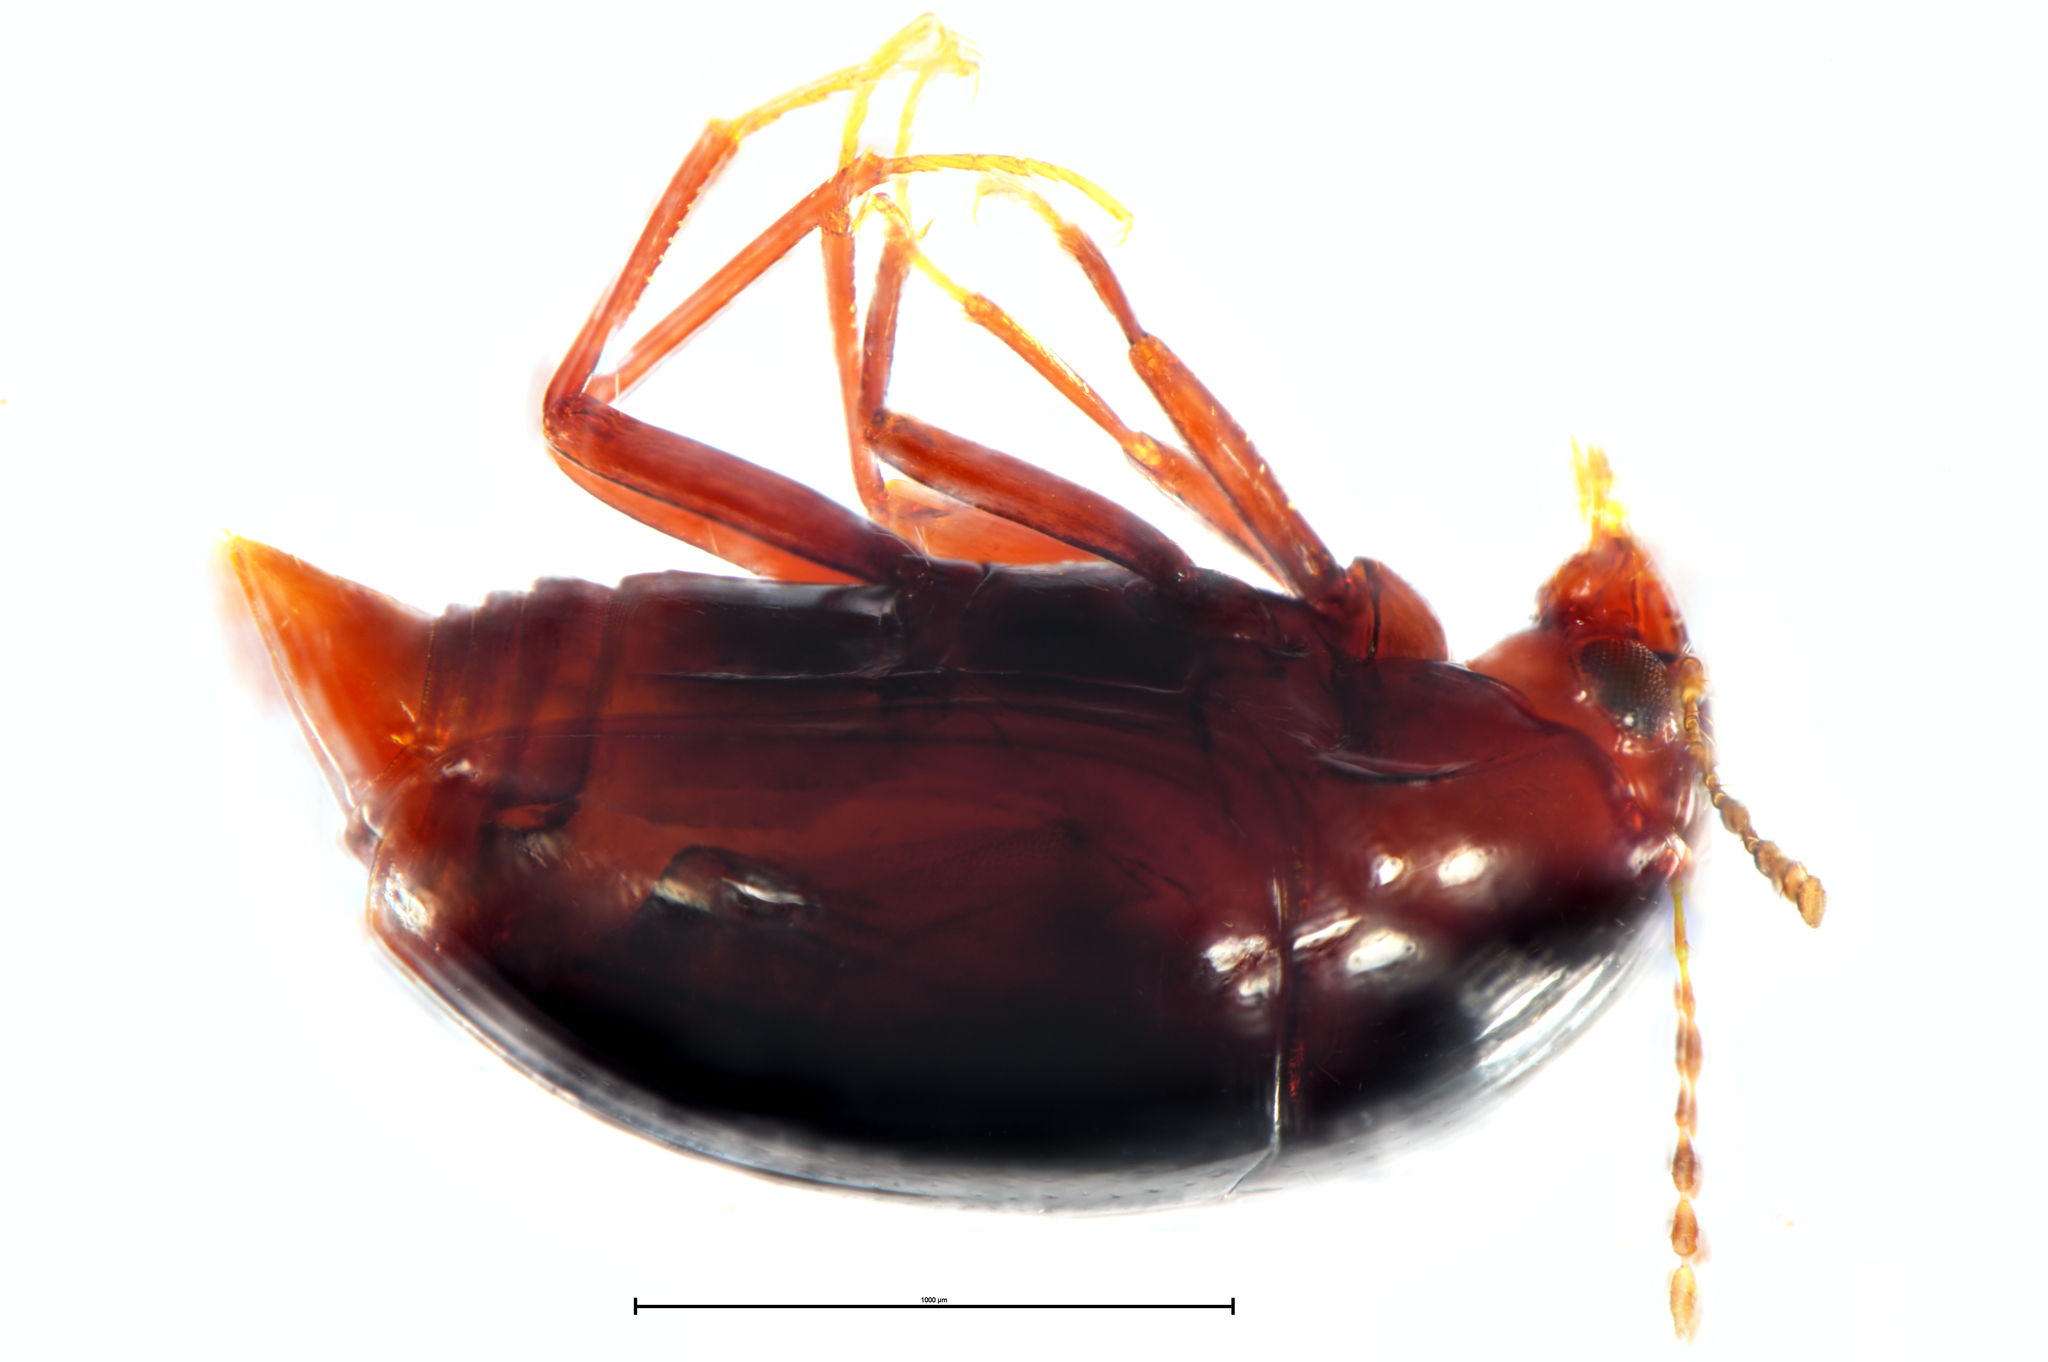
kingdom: Animalia
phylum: Arthropoda
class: Insecta
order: Coleoptera
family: Staphylinidae
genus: Brachynopus
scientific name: Brachynopus scutellaris
